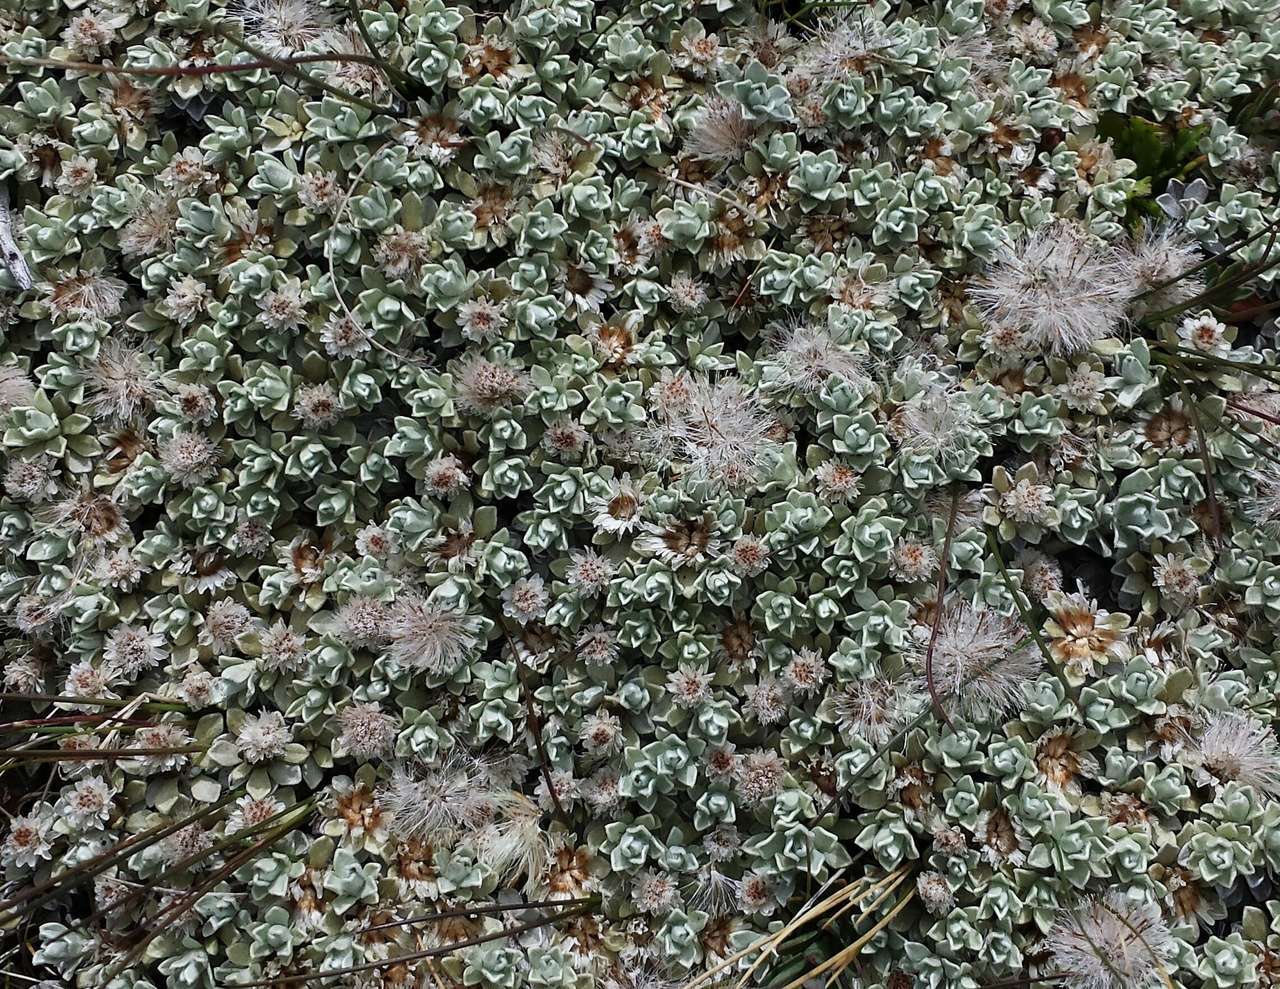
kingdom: Plantae
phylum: Tracheophyta
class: Magnoliopsida
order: Asterales
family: Asteraceae
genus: Ewartia
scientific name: Ewartia nubigena
